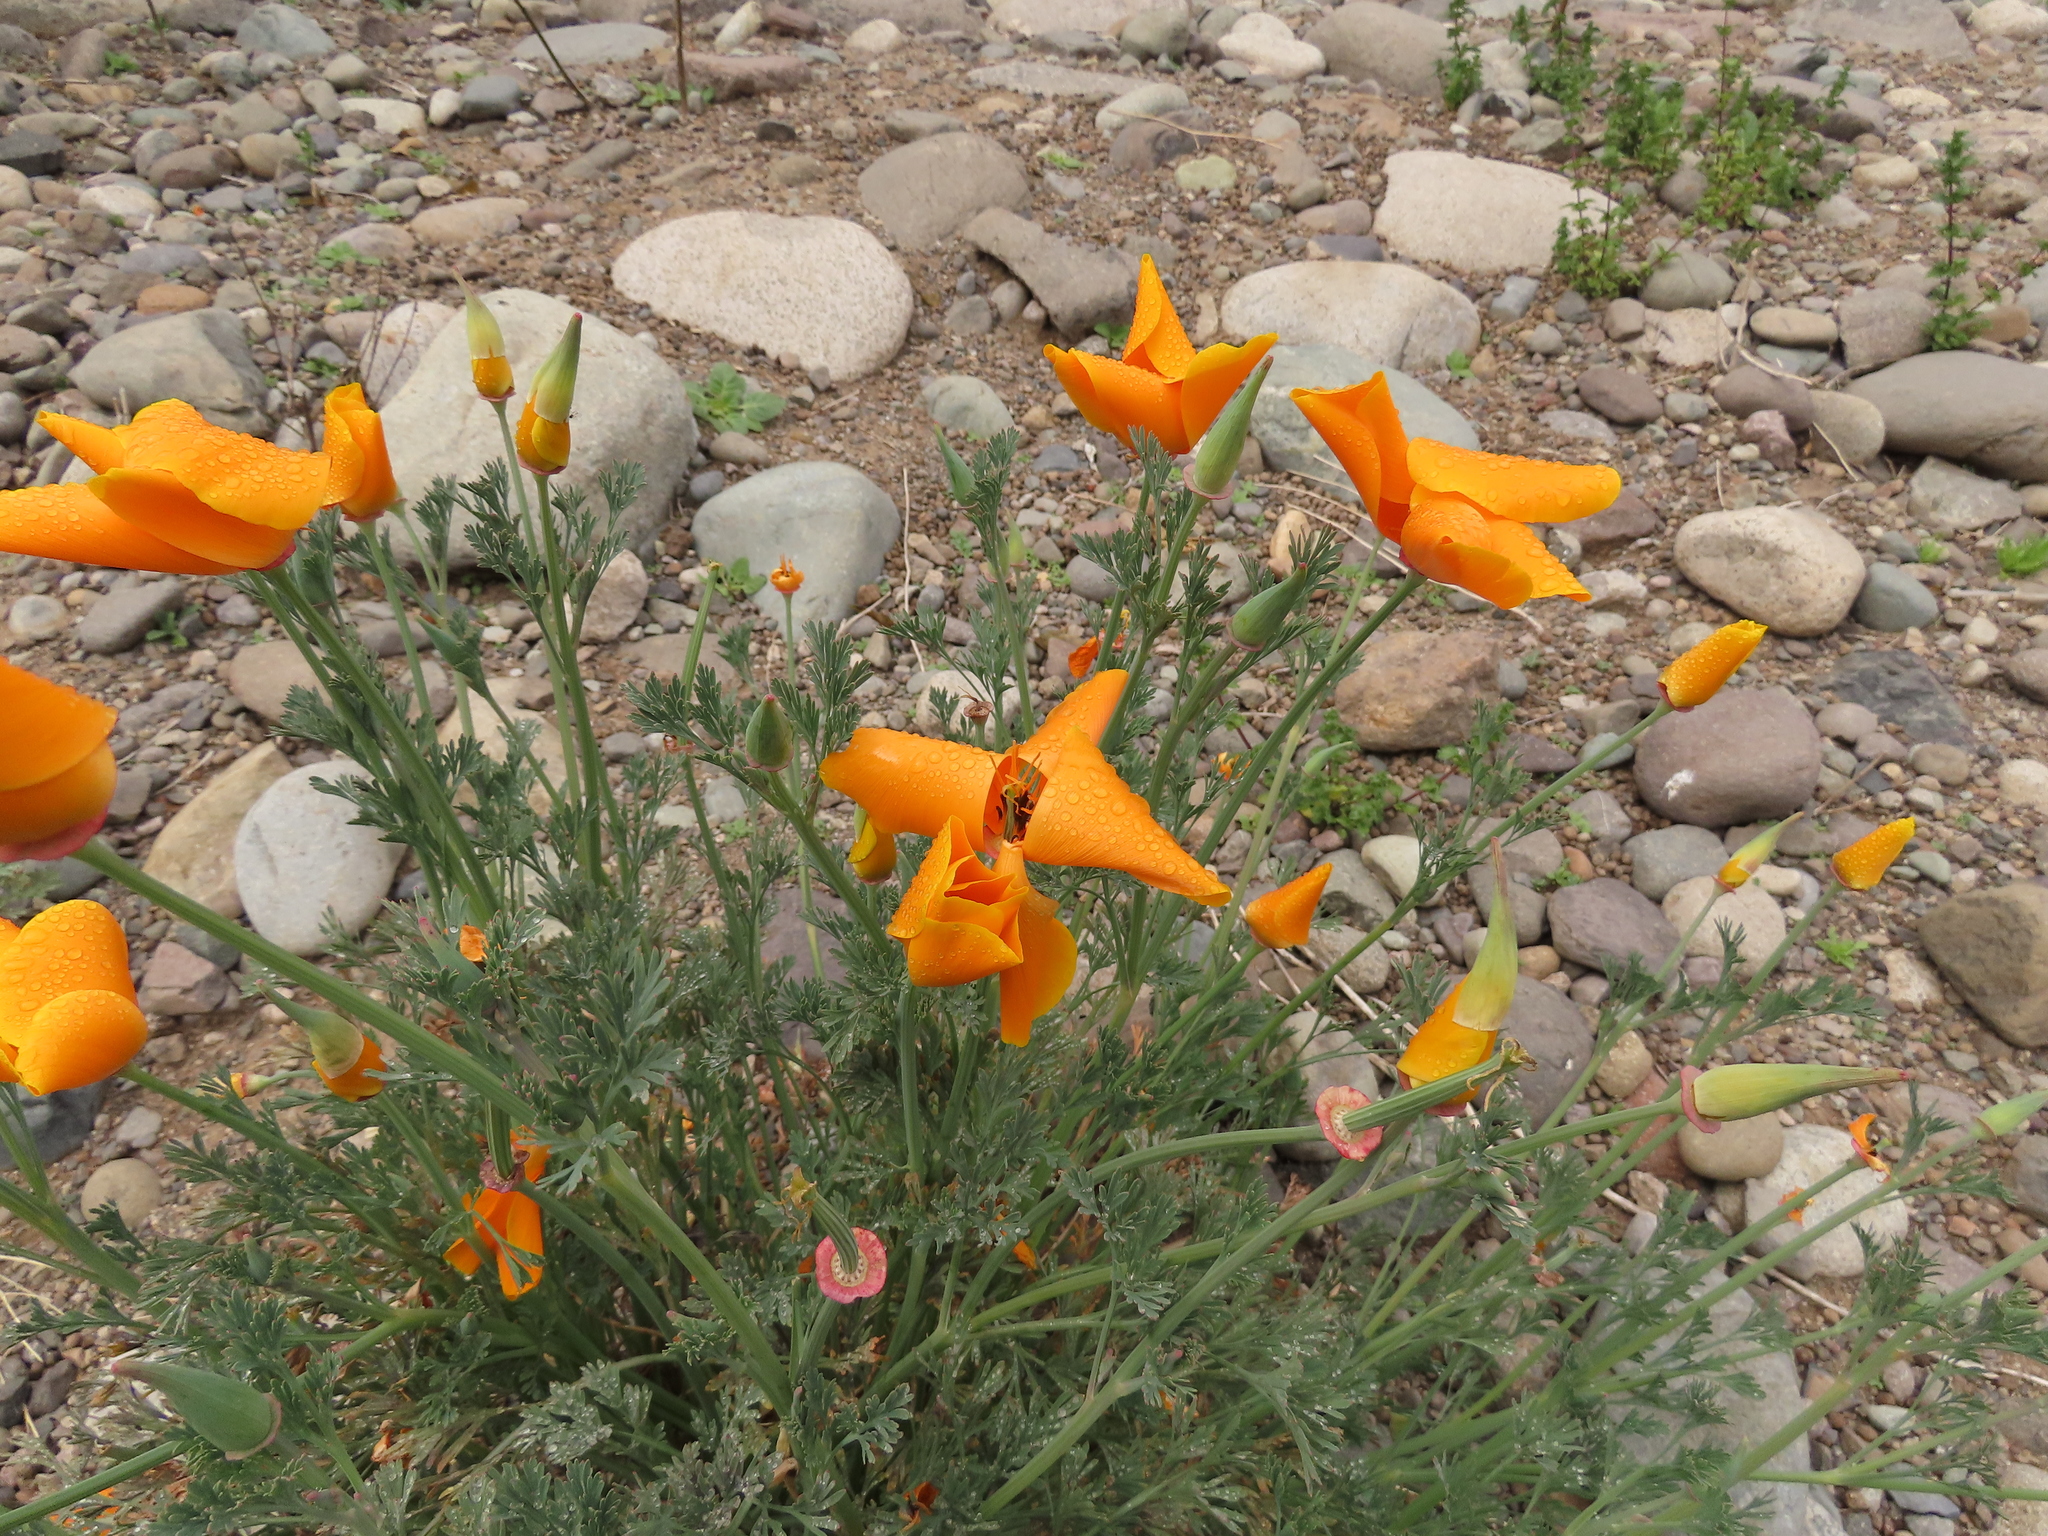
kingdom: Plantae
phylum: Tracheophyta
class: Magnoliopsida
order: Ranunculales
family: Papaveraceae
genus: Eschscholzia
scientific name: Eschscholzia californica
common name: California poppy
